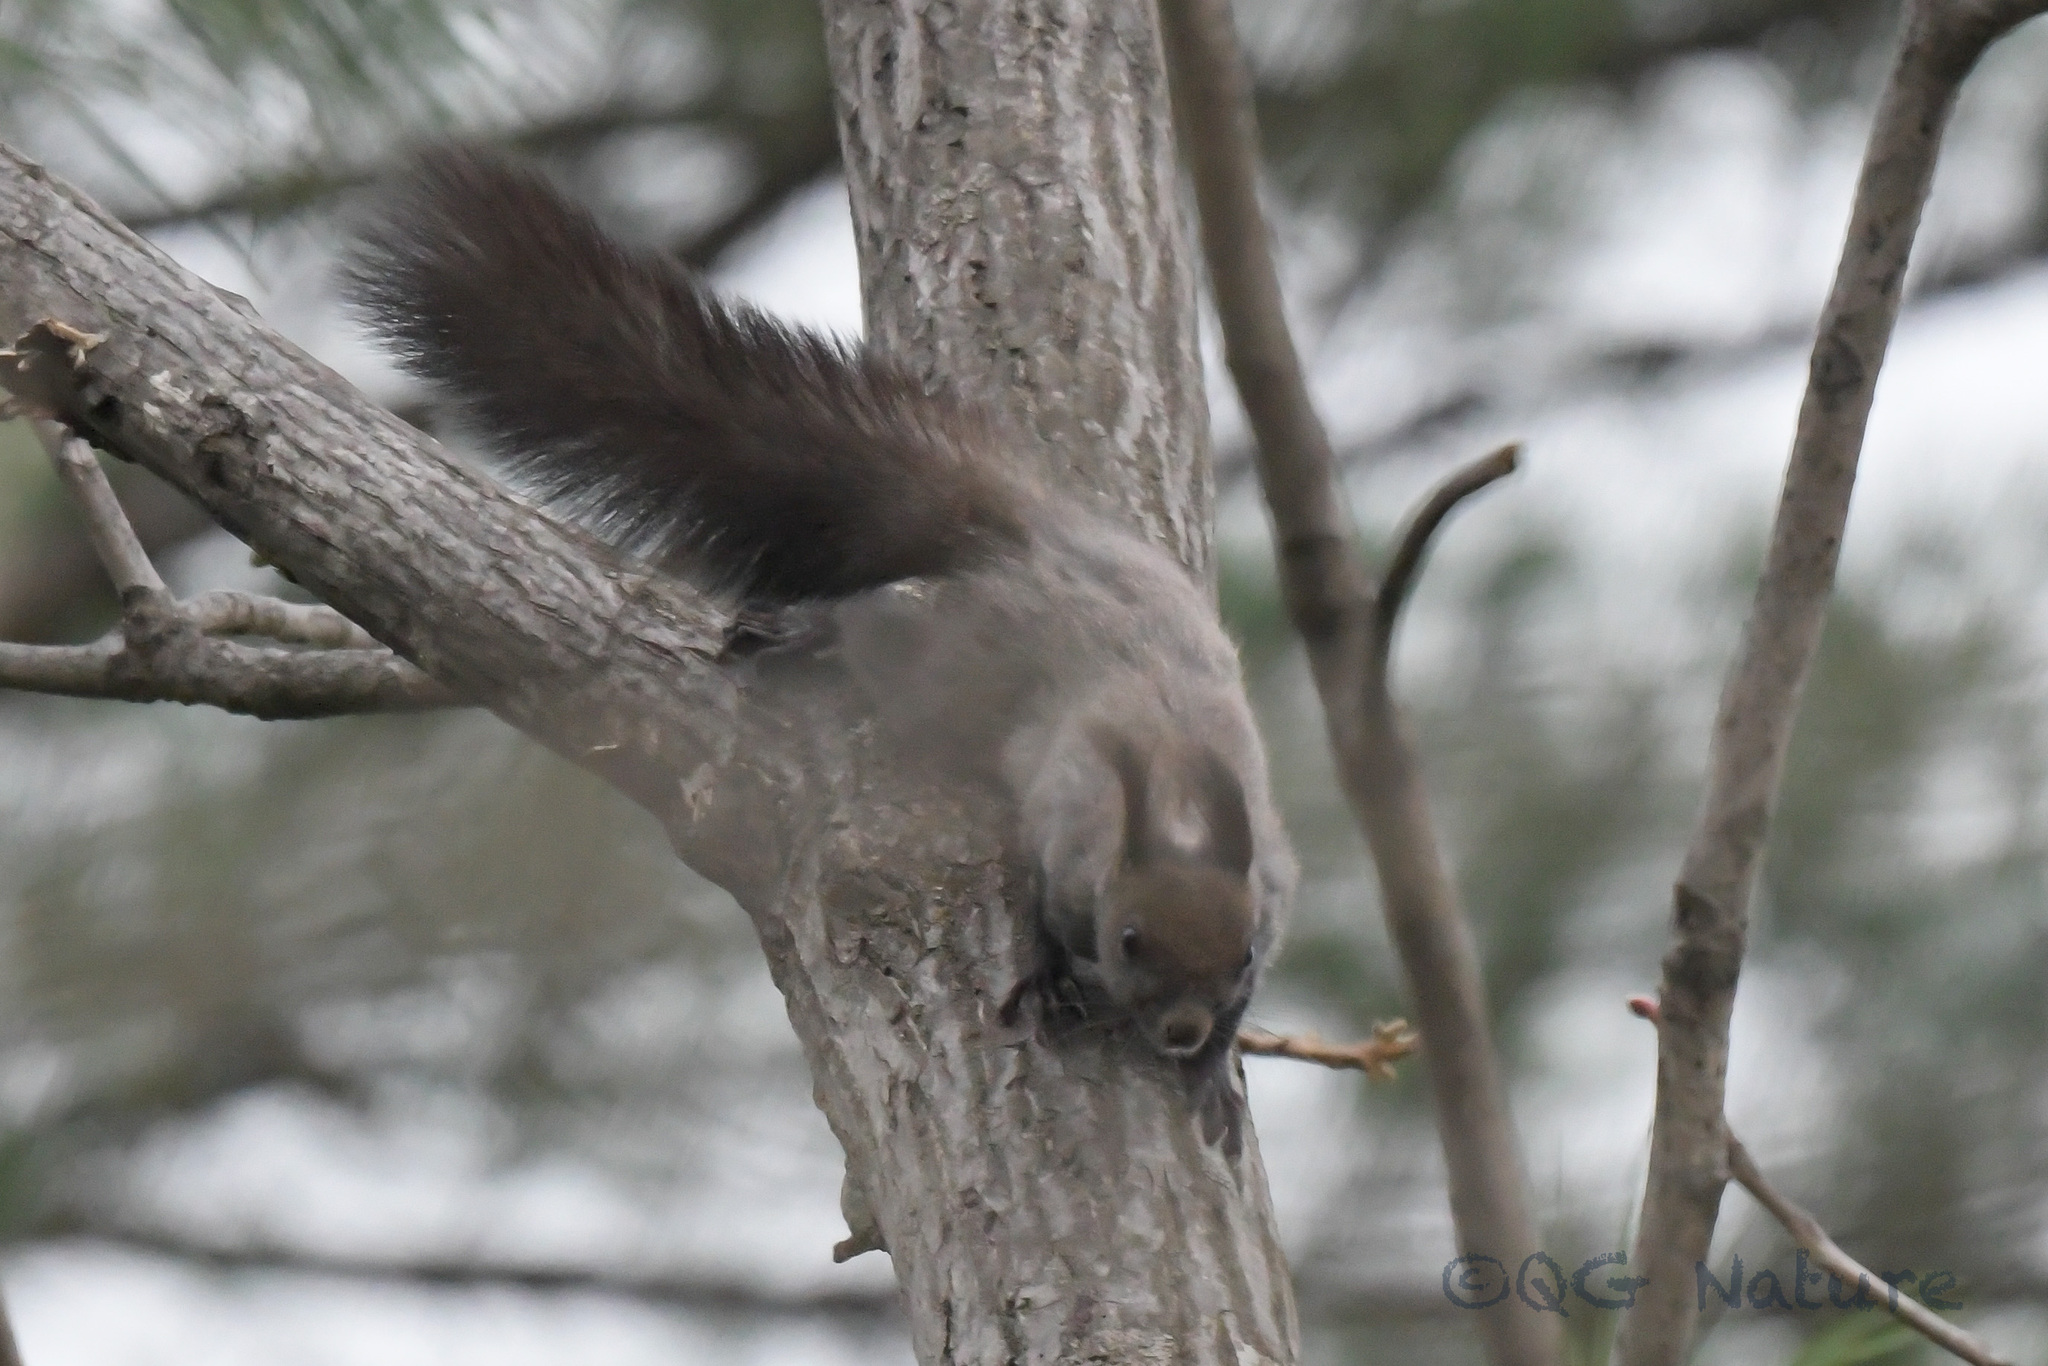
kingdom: Animalia
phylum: Chordata
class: Mammalia
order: Rodentia
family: Sciuridae
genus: Sciurus
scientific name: Sciurus vulgaris
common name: Eurasian red squirrel
